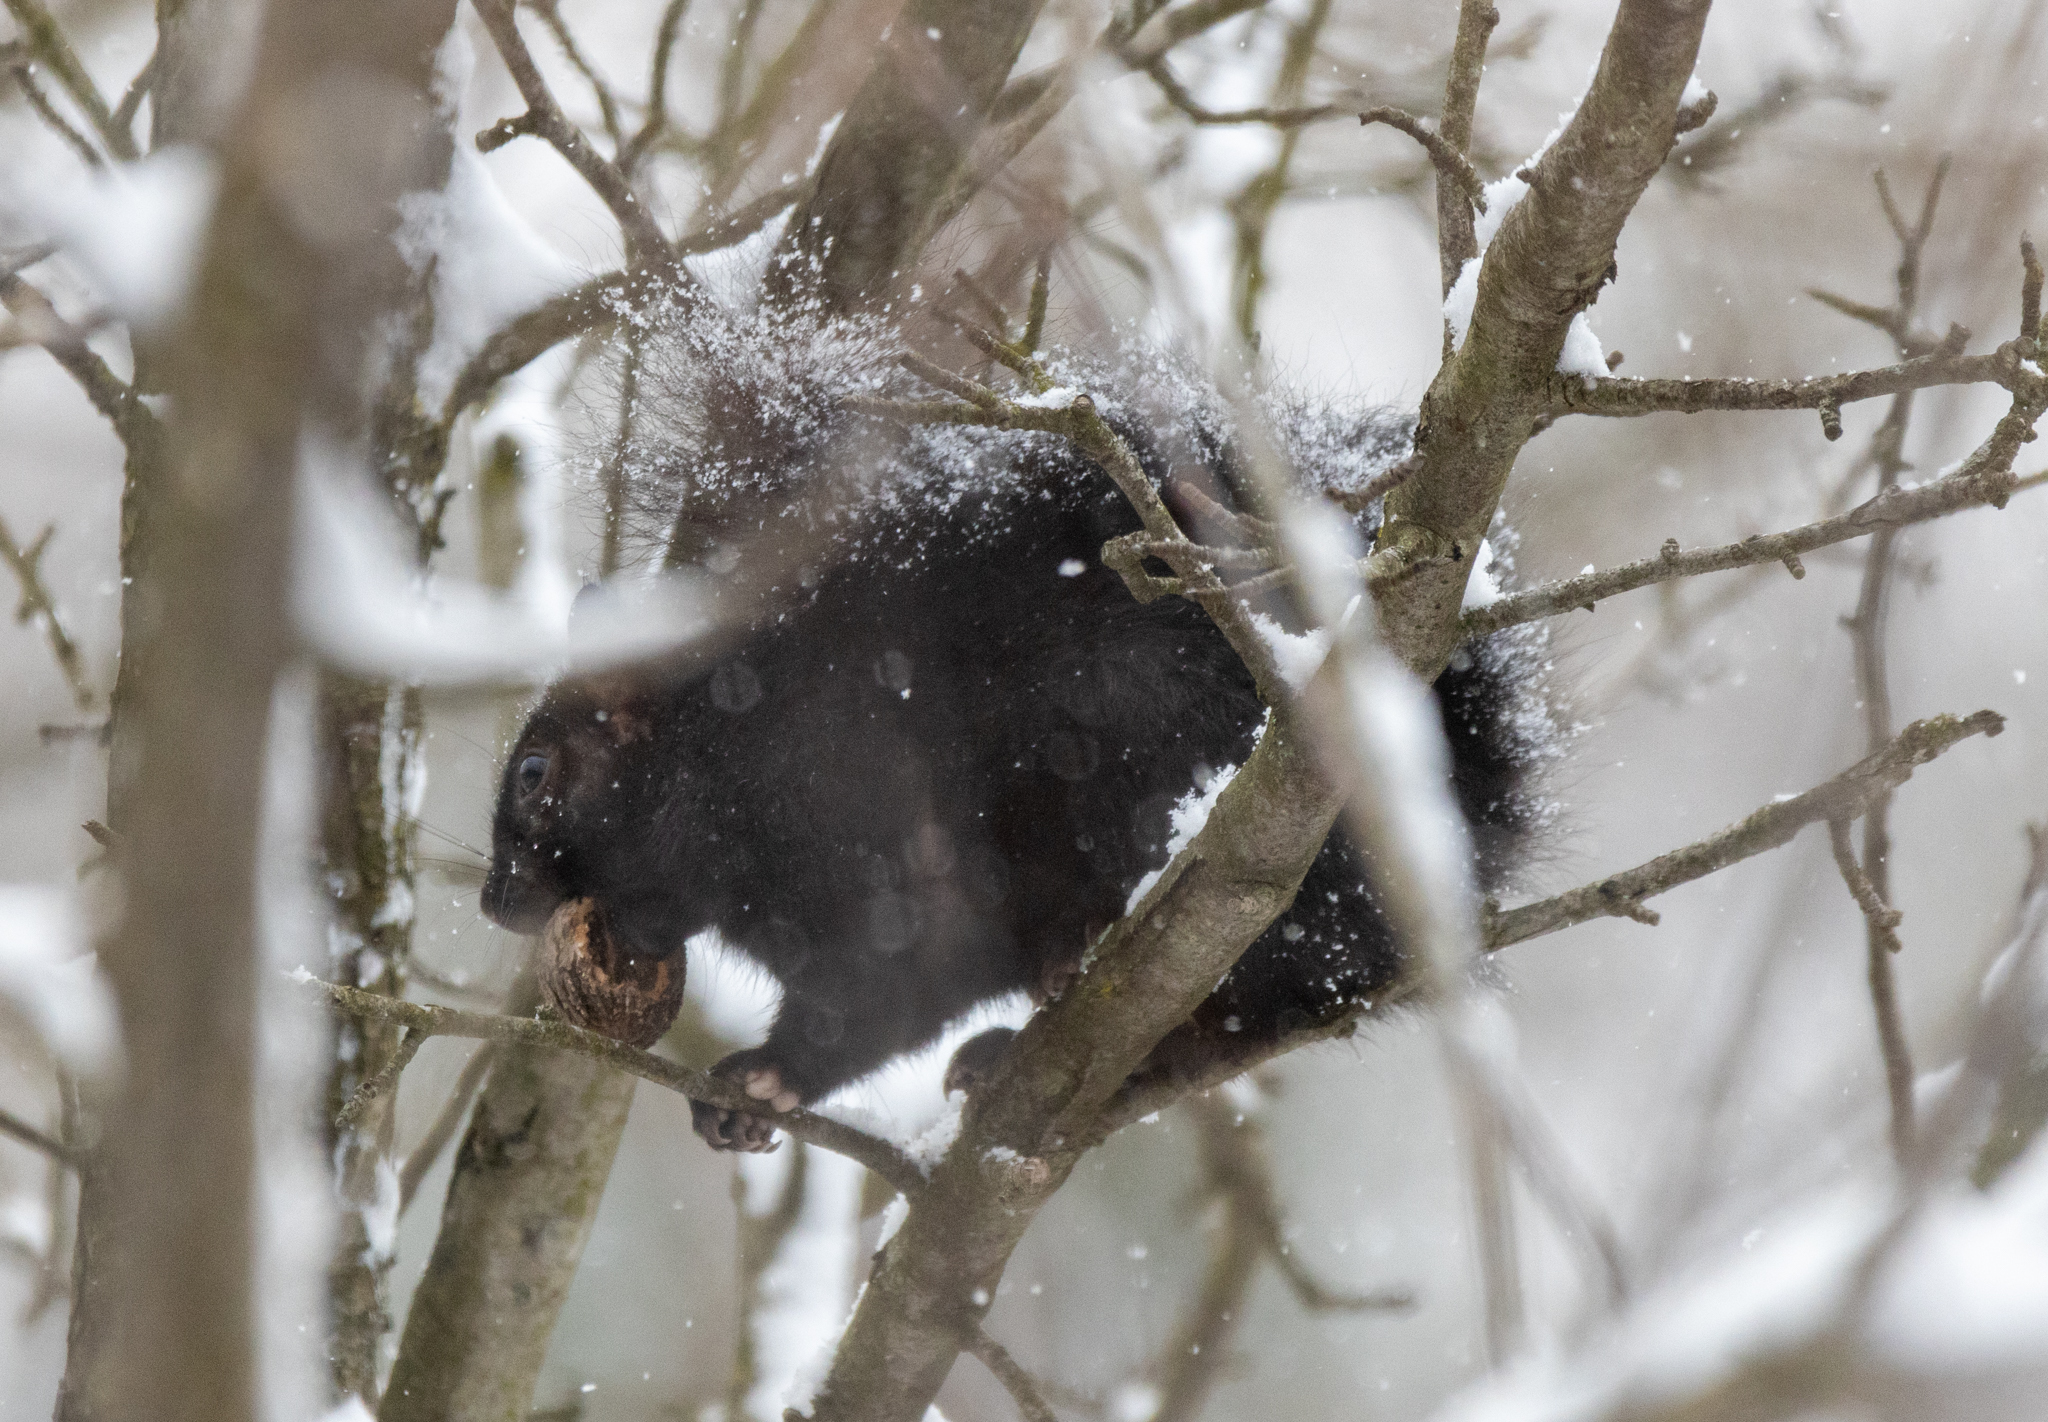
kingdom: Animalia
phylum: Chordata
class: Mammalia
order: Rodentia
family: Sciuridae
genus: Sciurus
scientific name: Sciurus carolinensis
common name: Eastern gray squirrel
